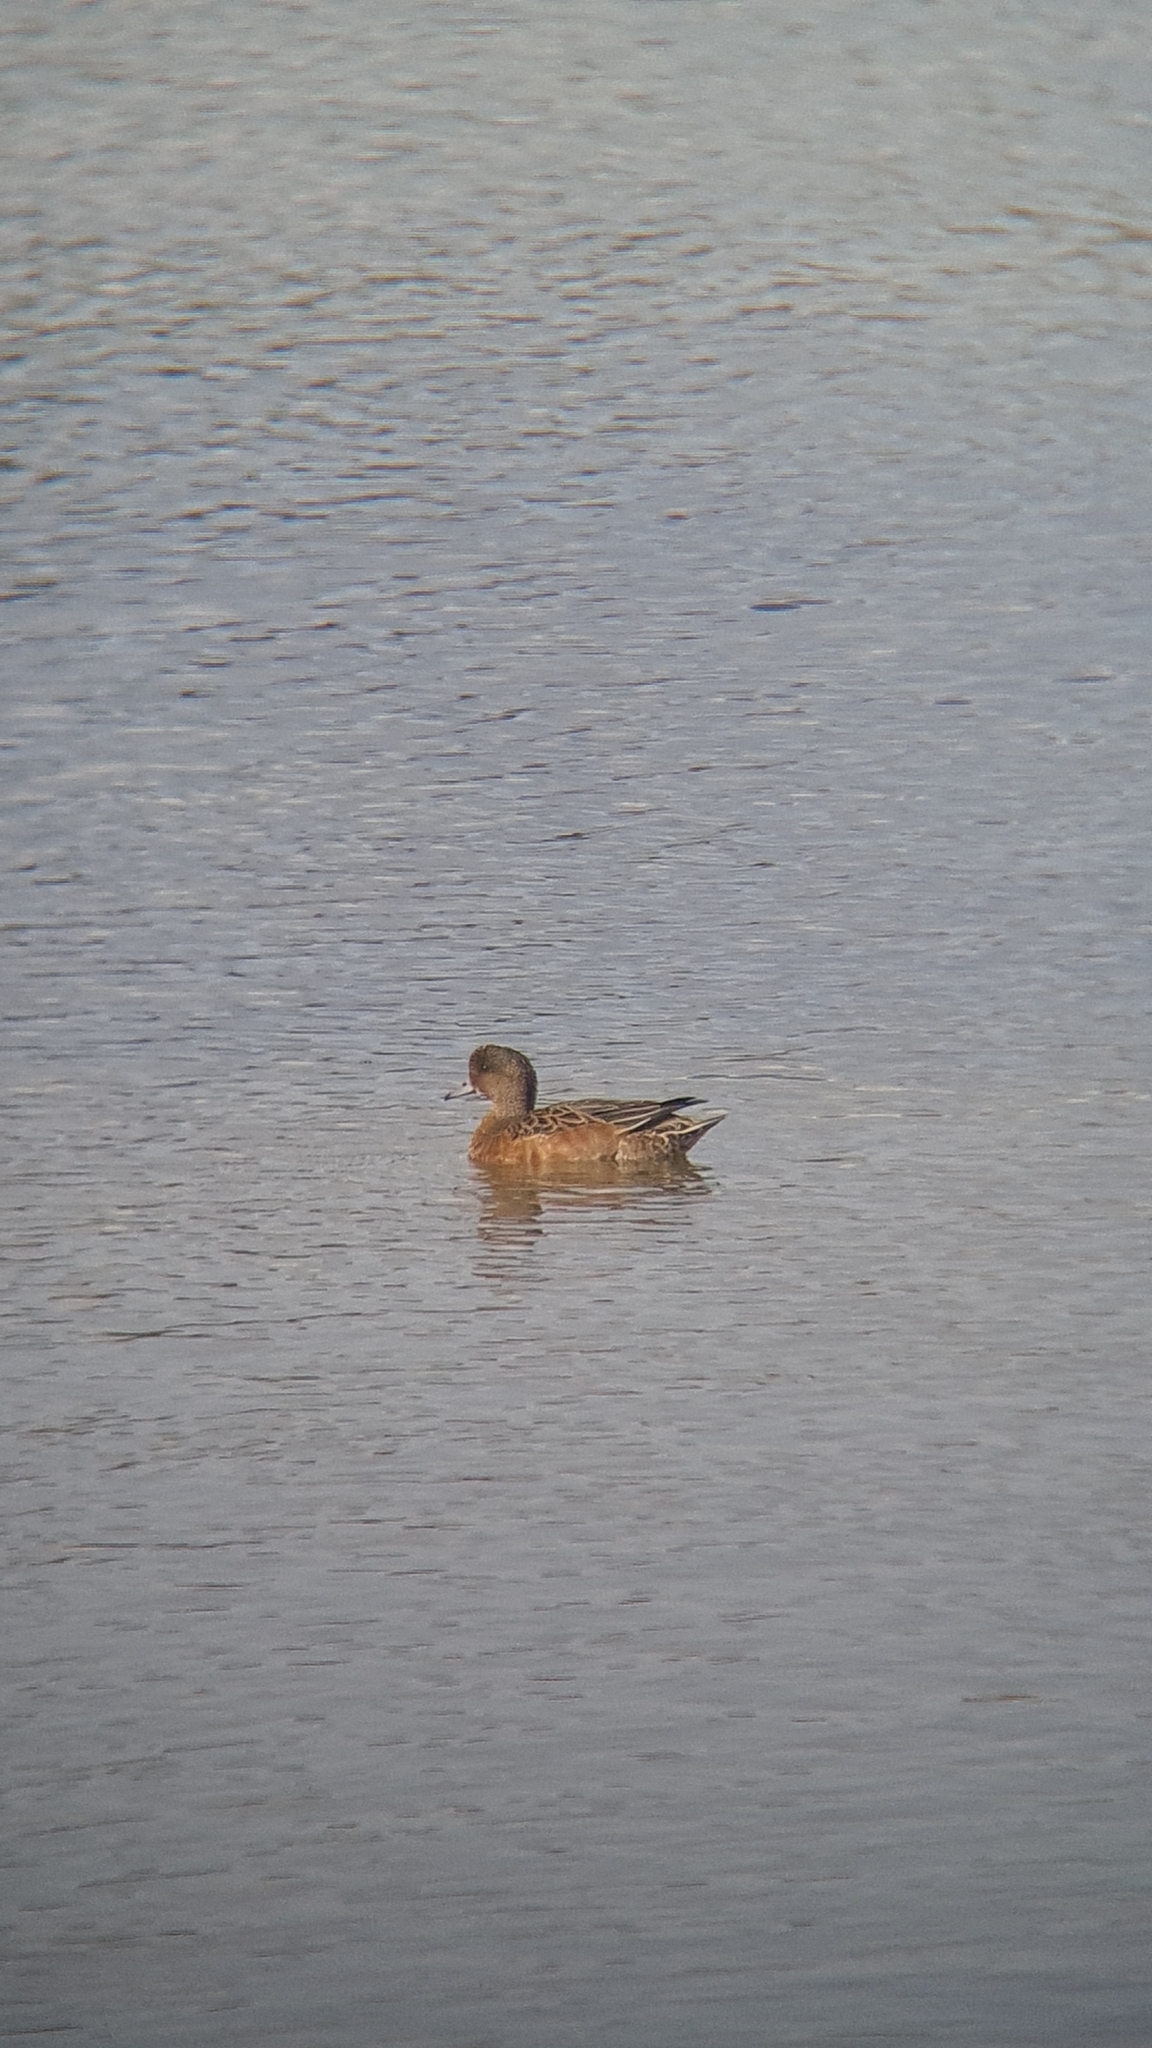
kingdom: Animalia
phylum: Chordata
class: Aves
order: Anseriformes
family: Anatidae
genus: Mareca
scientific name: Mareca penelope
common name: Eurasian wigeon
